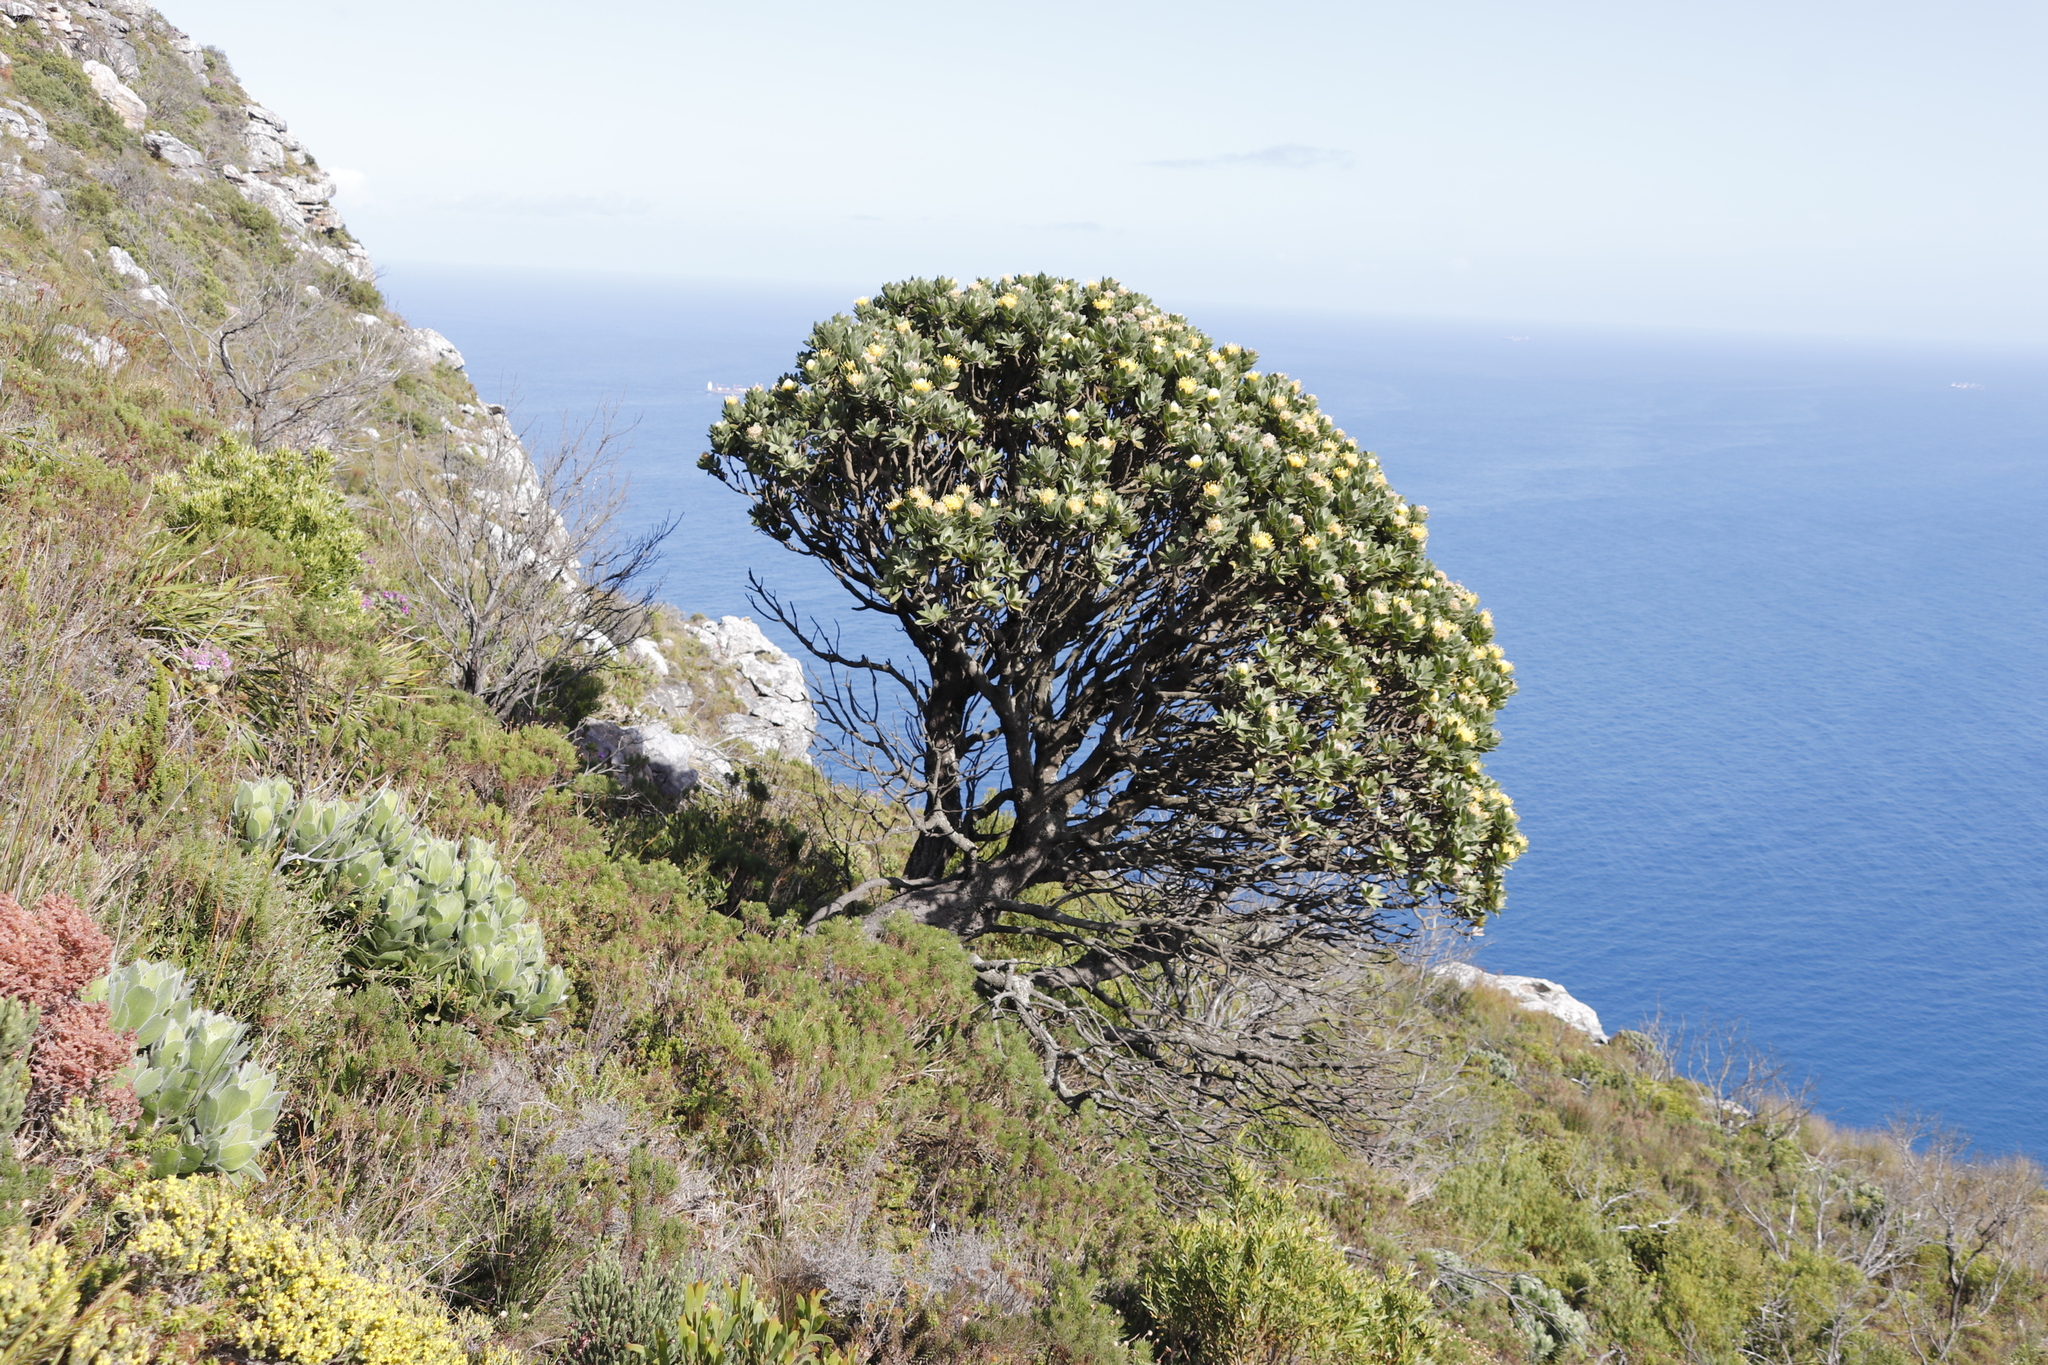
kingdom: Plantae
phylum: Tracheophyta
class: Magnoliopsida
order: Proteales
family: Proteaceae
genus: Leucospermum
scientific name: Leucospermum conocarpodendron
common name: Tree pincushion
